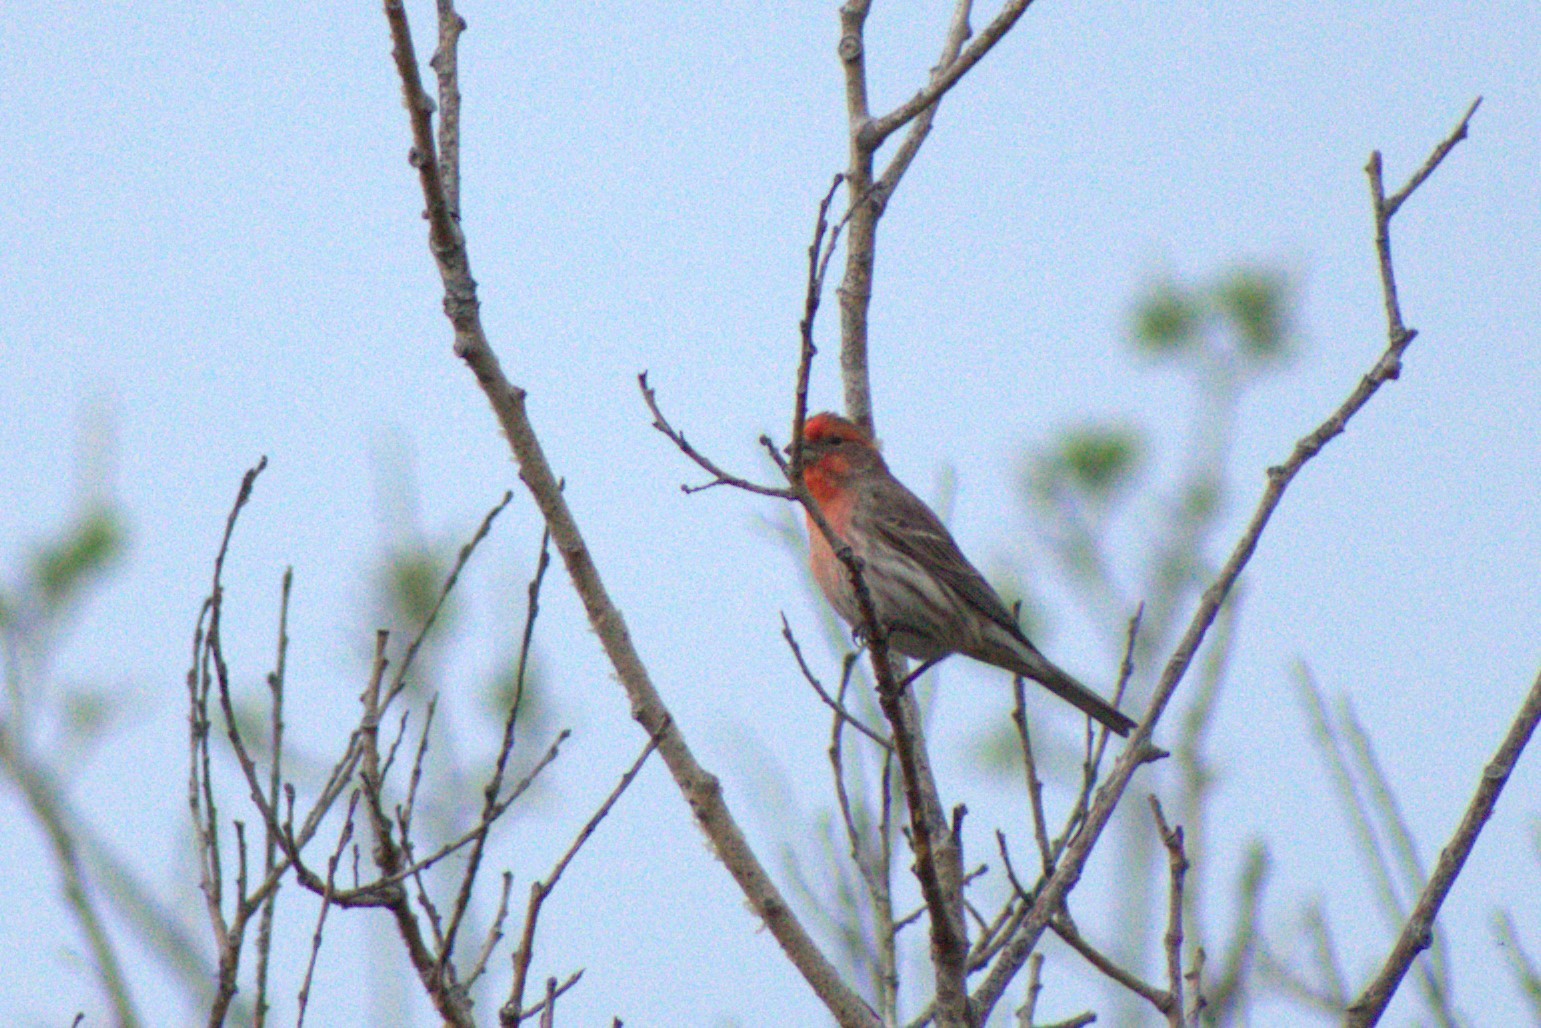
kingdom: Animalia
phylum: Chordata
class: Aves
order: Passeriformes
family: Fringillidae
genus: Haemorhous
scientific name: Haemorhous mexicanus
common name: House finch
